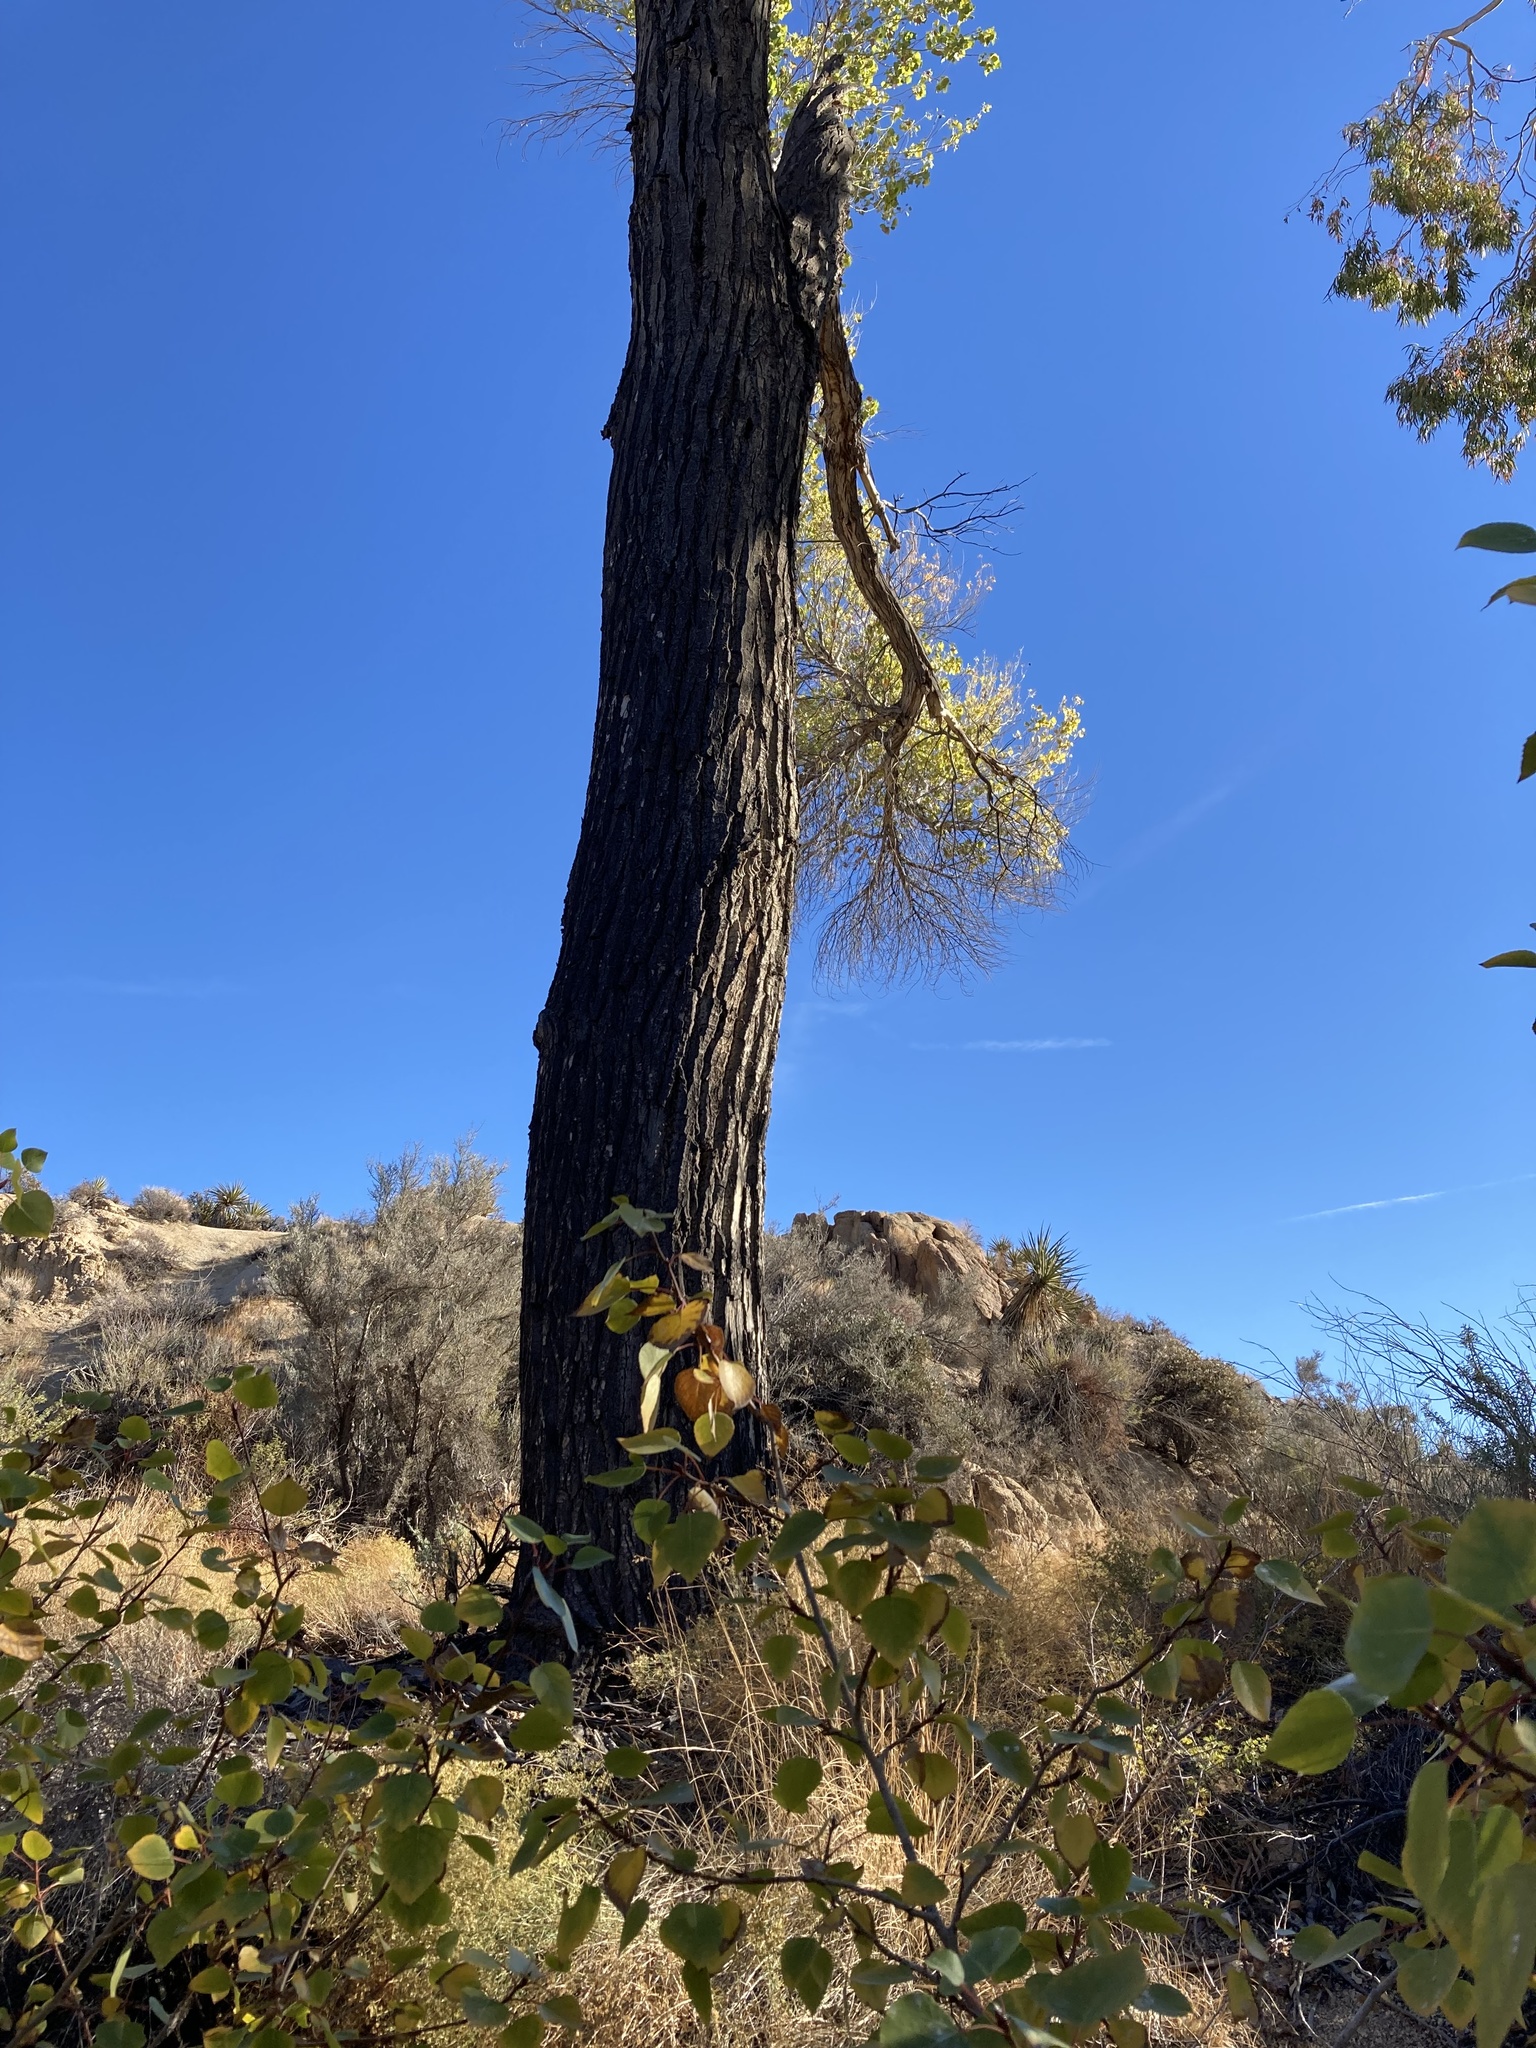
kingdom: Plantae
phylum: Tracheophyta
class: Magnoliopsida
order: Malpighiales
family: Salicaceae
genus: Populus
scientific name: Populus fremontii
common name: Fremont's cottonwood
